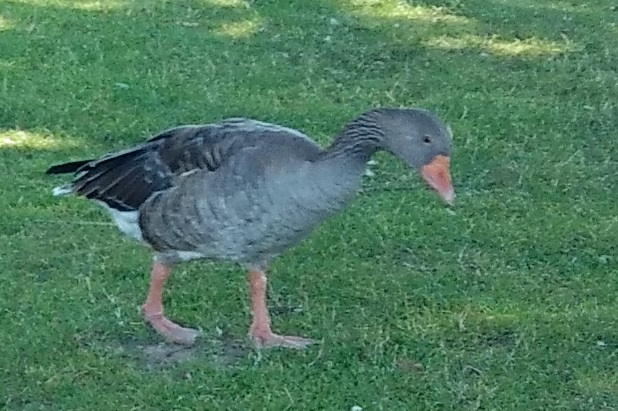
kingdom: Animalia
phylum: Chordata
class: Aves
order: Anseriformes
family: Anatidae
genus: Anser
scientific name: Anser anser
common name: Greylag goose
